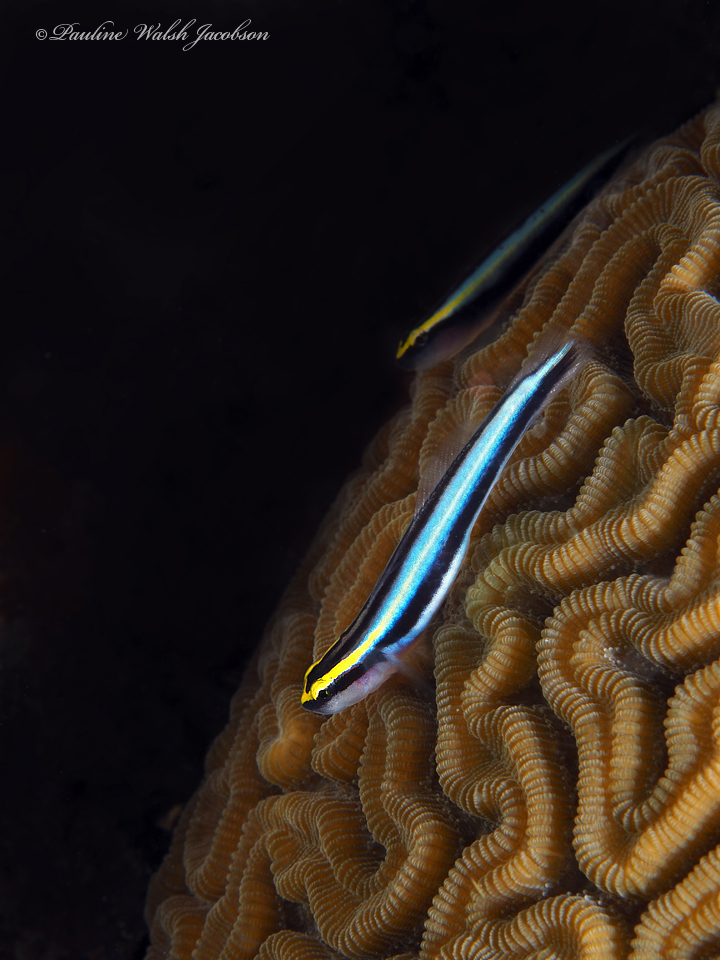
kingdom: Animalia
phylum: Chordata
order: Perciformes
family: Gobiidae
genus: Elacatinus
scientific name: Elacatinus evelynae
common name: Sharknose goby
